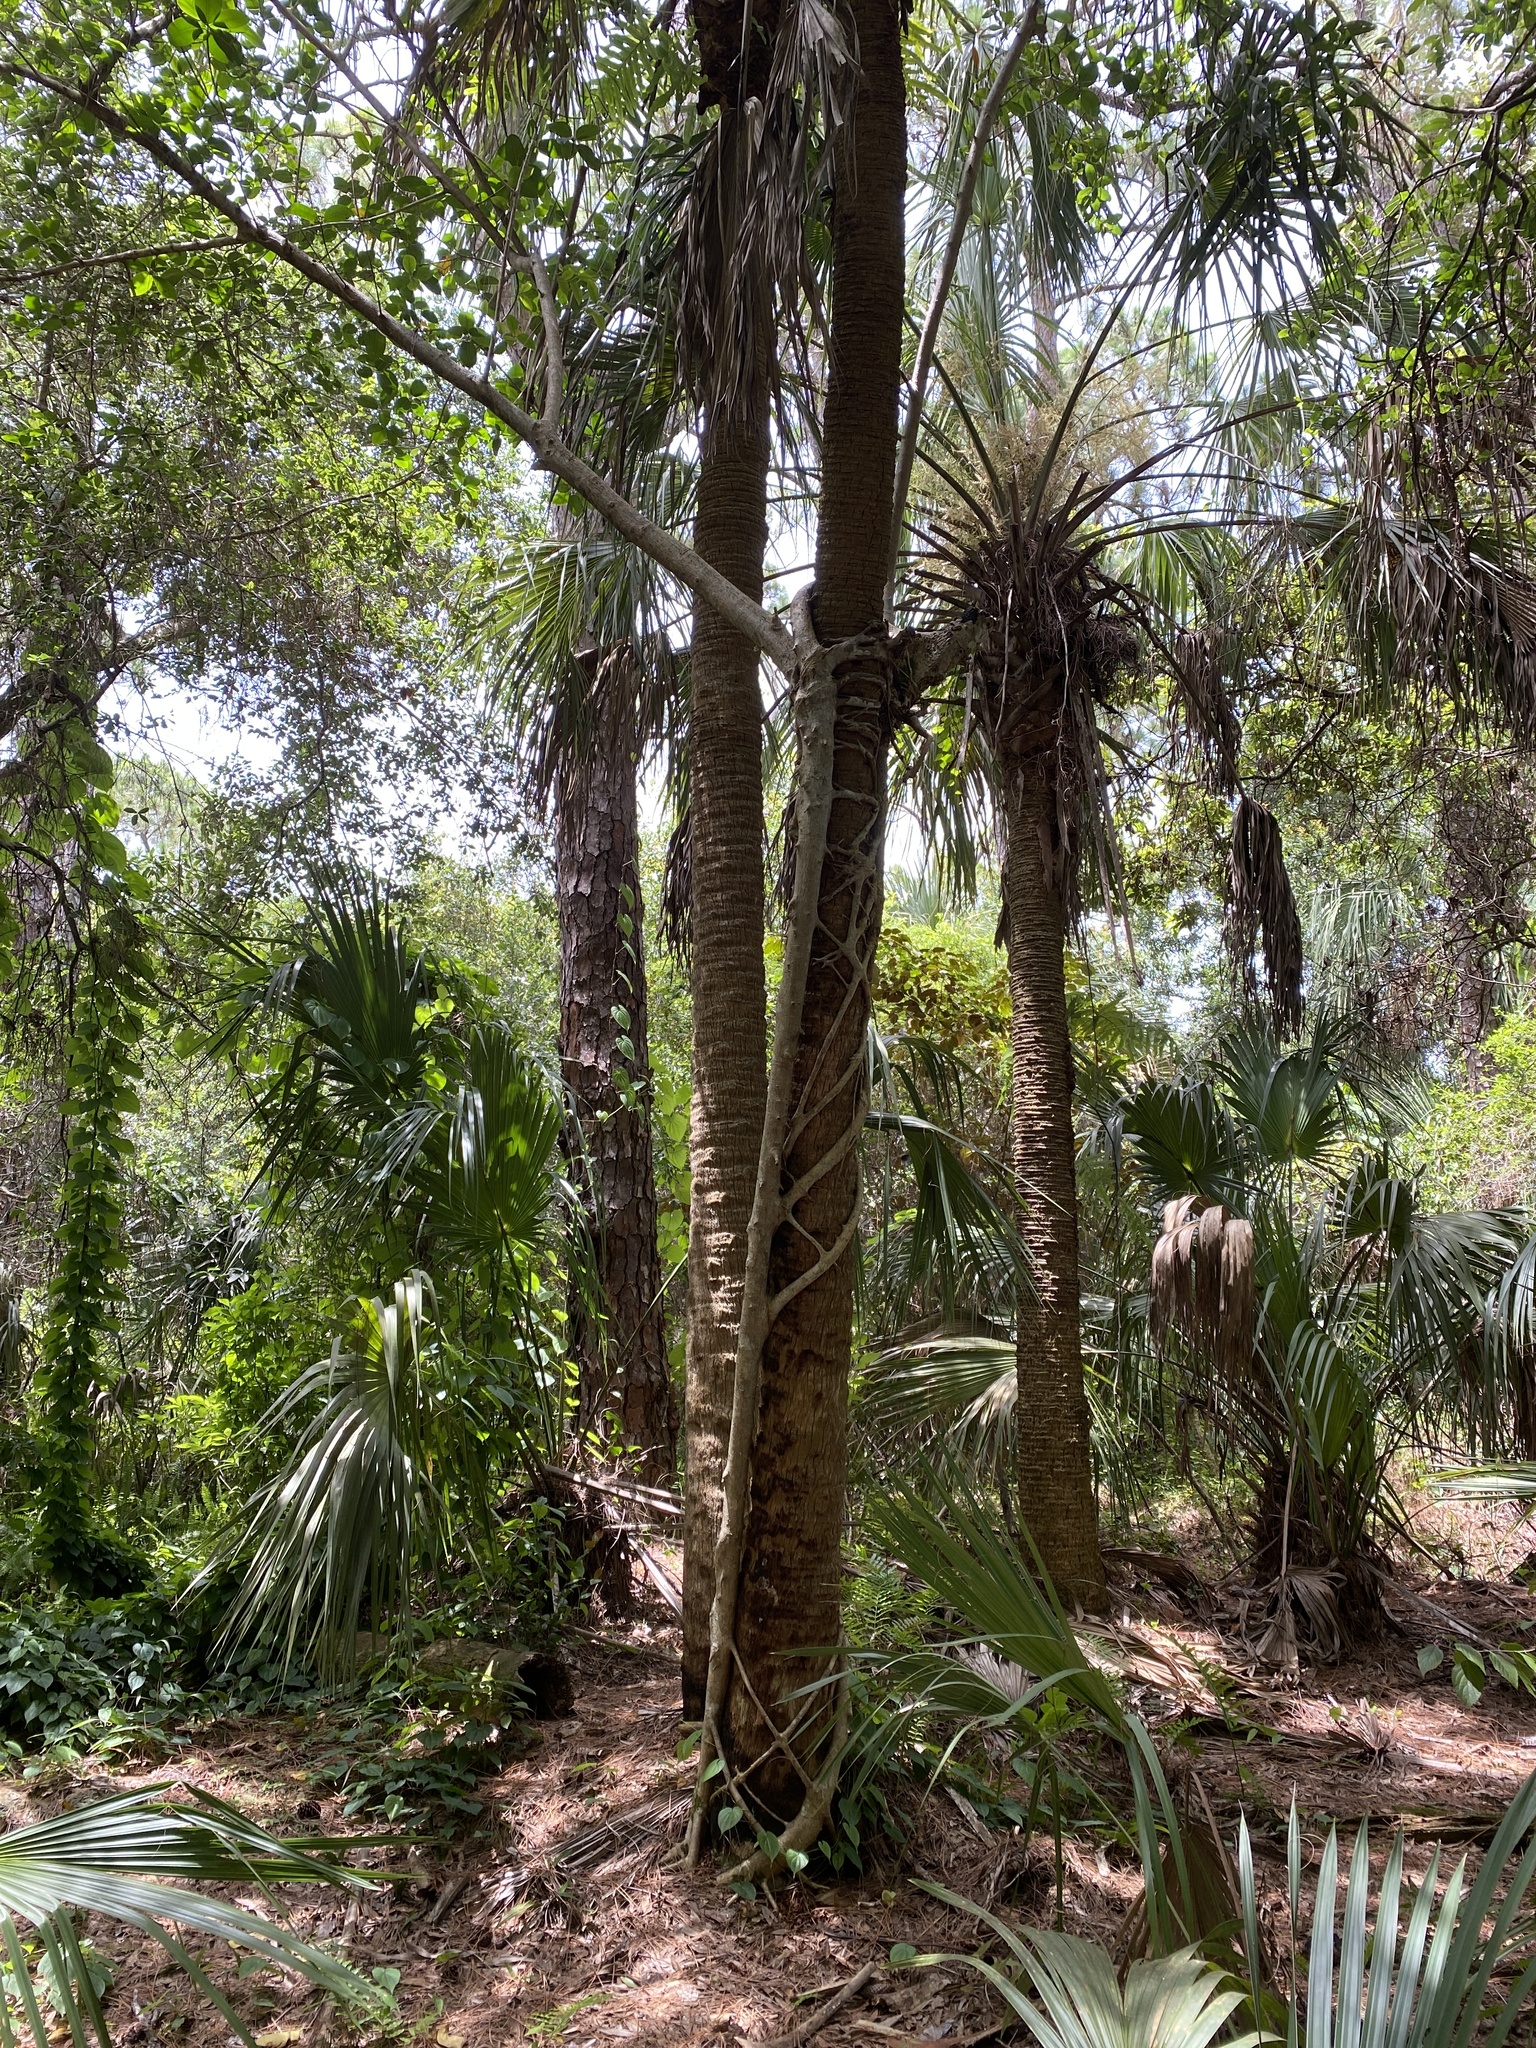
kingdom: Plantae
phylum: Tracheophyta
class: Liliopsida
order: Arecales
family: Arecaceae
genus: Sabal
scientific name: Sabal palmetto
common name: Blue palmetto
